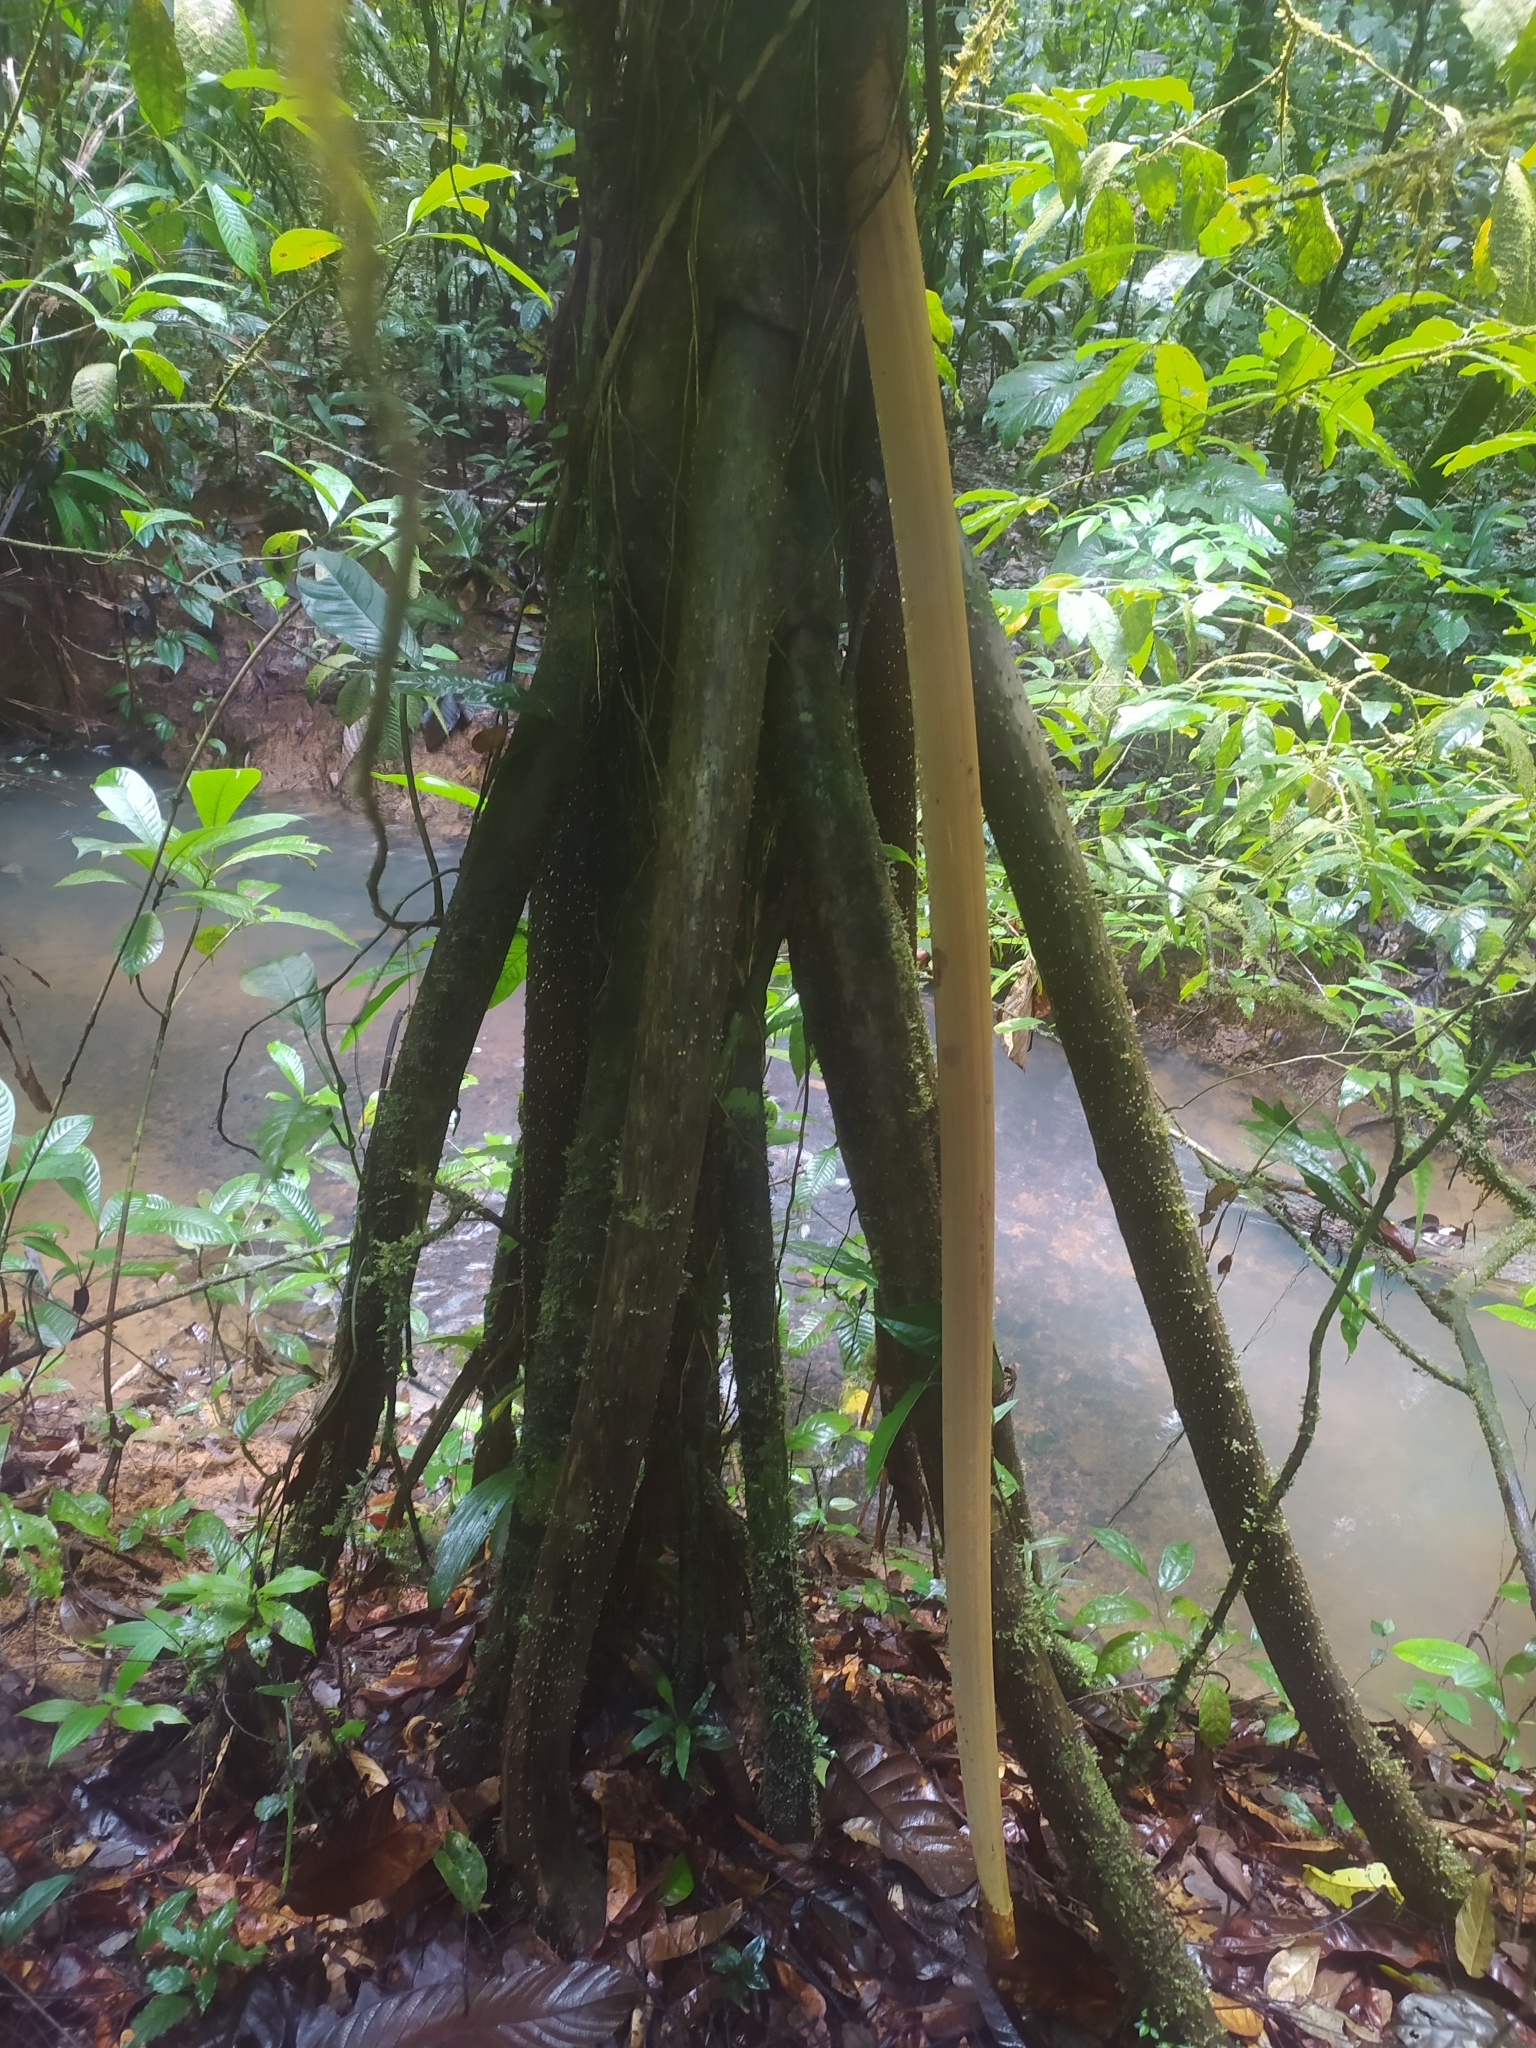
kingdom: Plantae
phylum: Tracheophyta
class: Liliopsida
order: Arecales
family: Arecaceae
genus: Socratea
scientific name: Socratea exorrhiza
